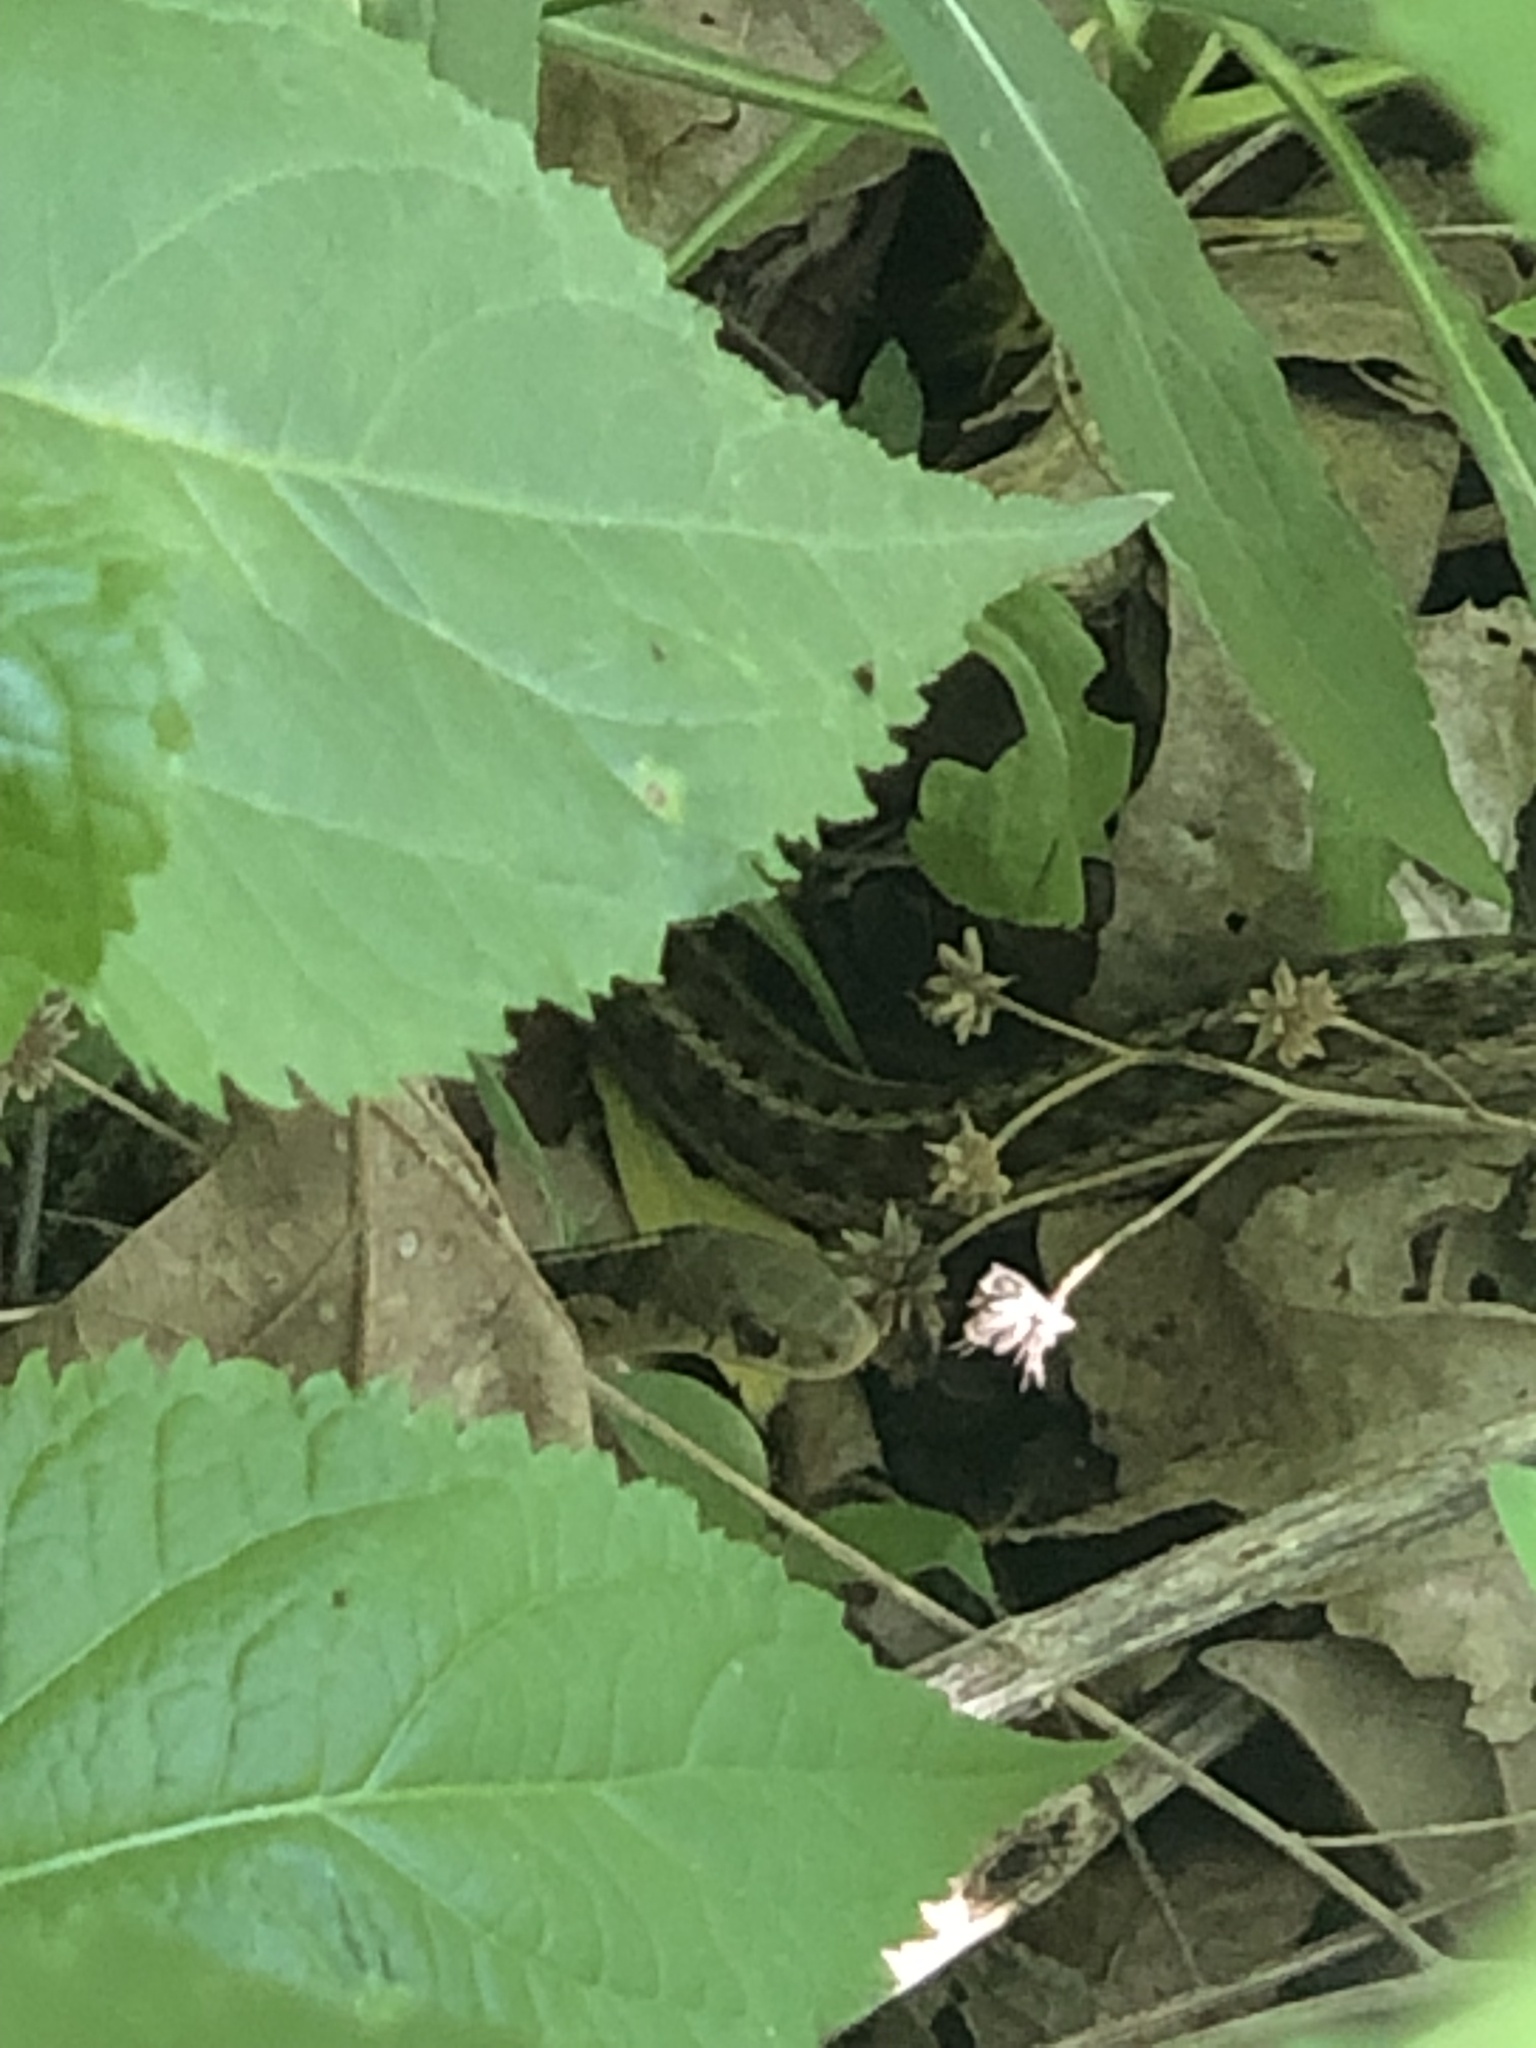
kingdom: Animalia
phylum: Chordata
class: Squamata
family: Colubridae
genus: Thamnophis
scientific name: Thamnophis sirtalis
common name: Common garter snake
